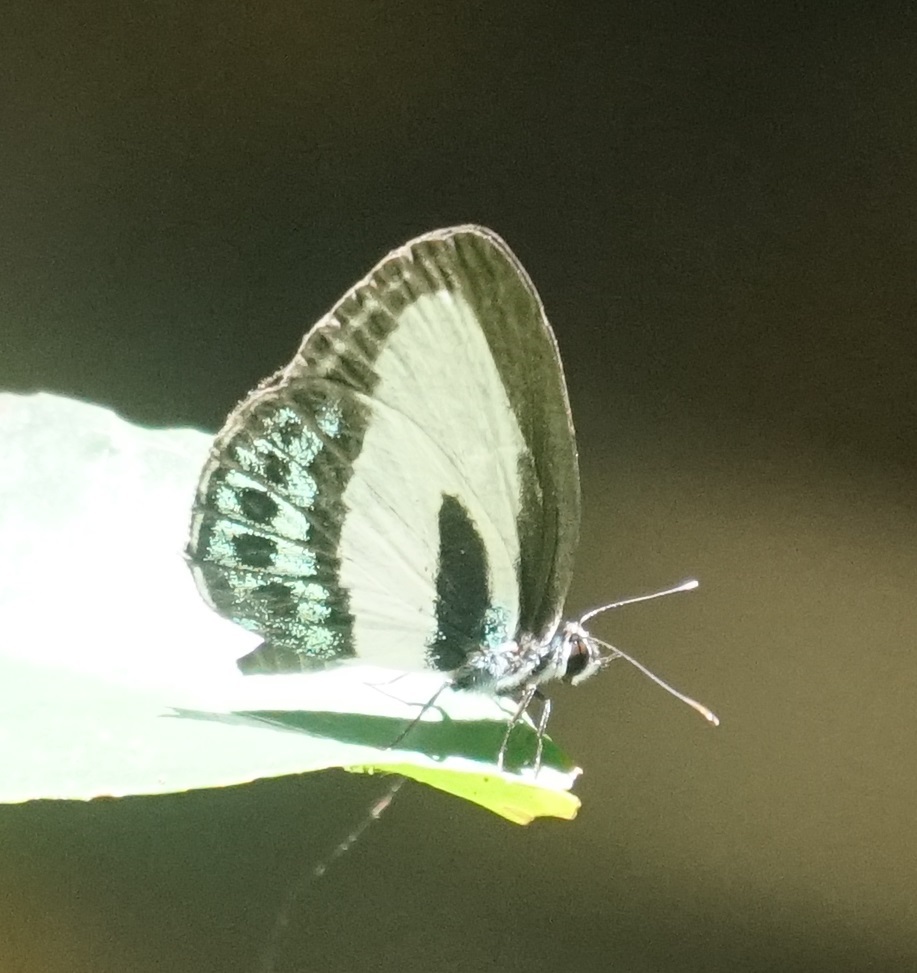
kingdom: Animalia
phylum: Arthropoda
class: Insecta
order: Lepidoptera
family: Lycaenidae
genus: Nacaduba
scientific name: Nacaduba cyanea
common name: Tailed green-banded line blue
